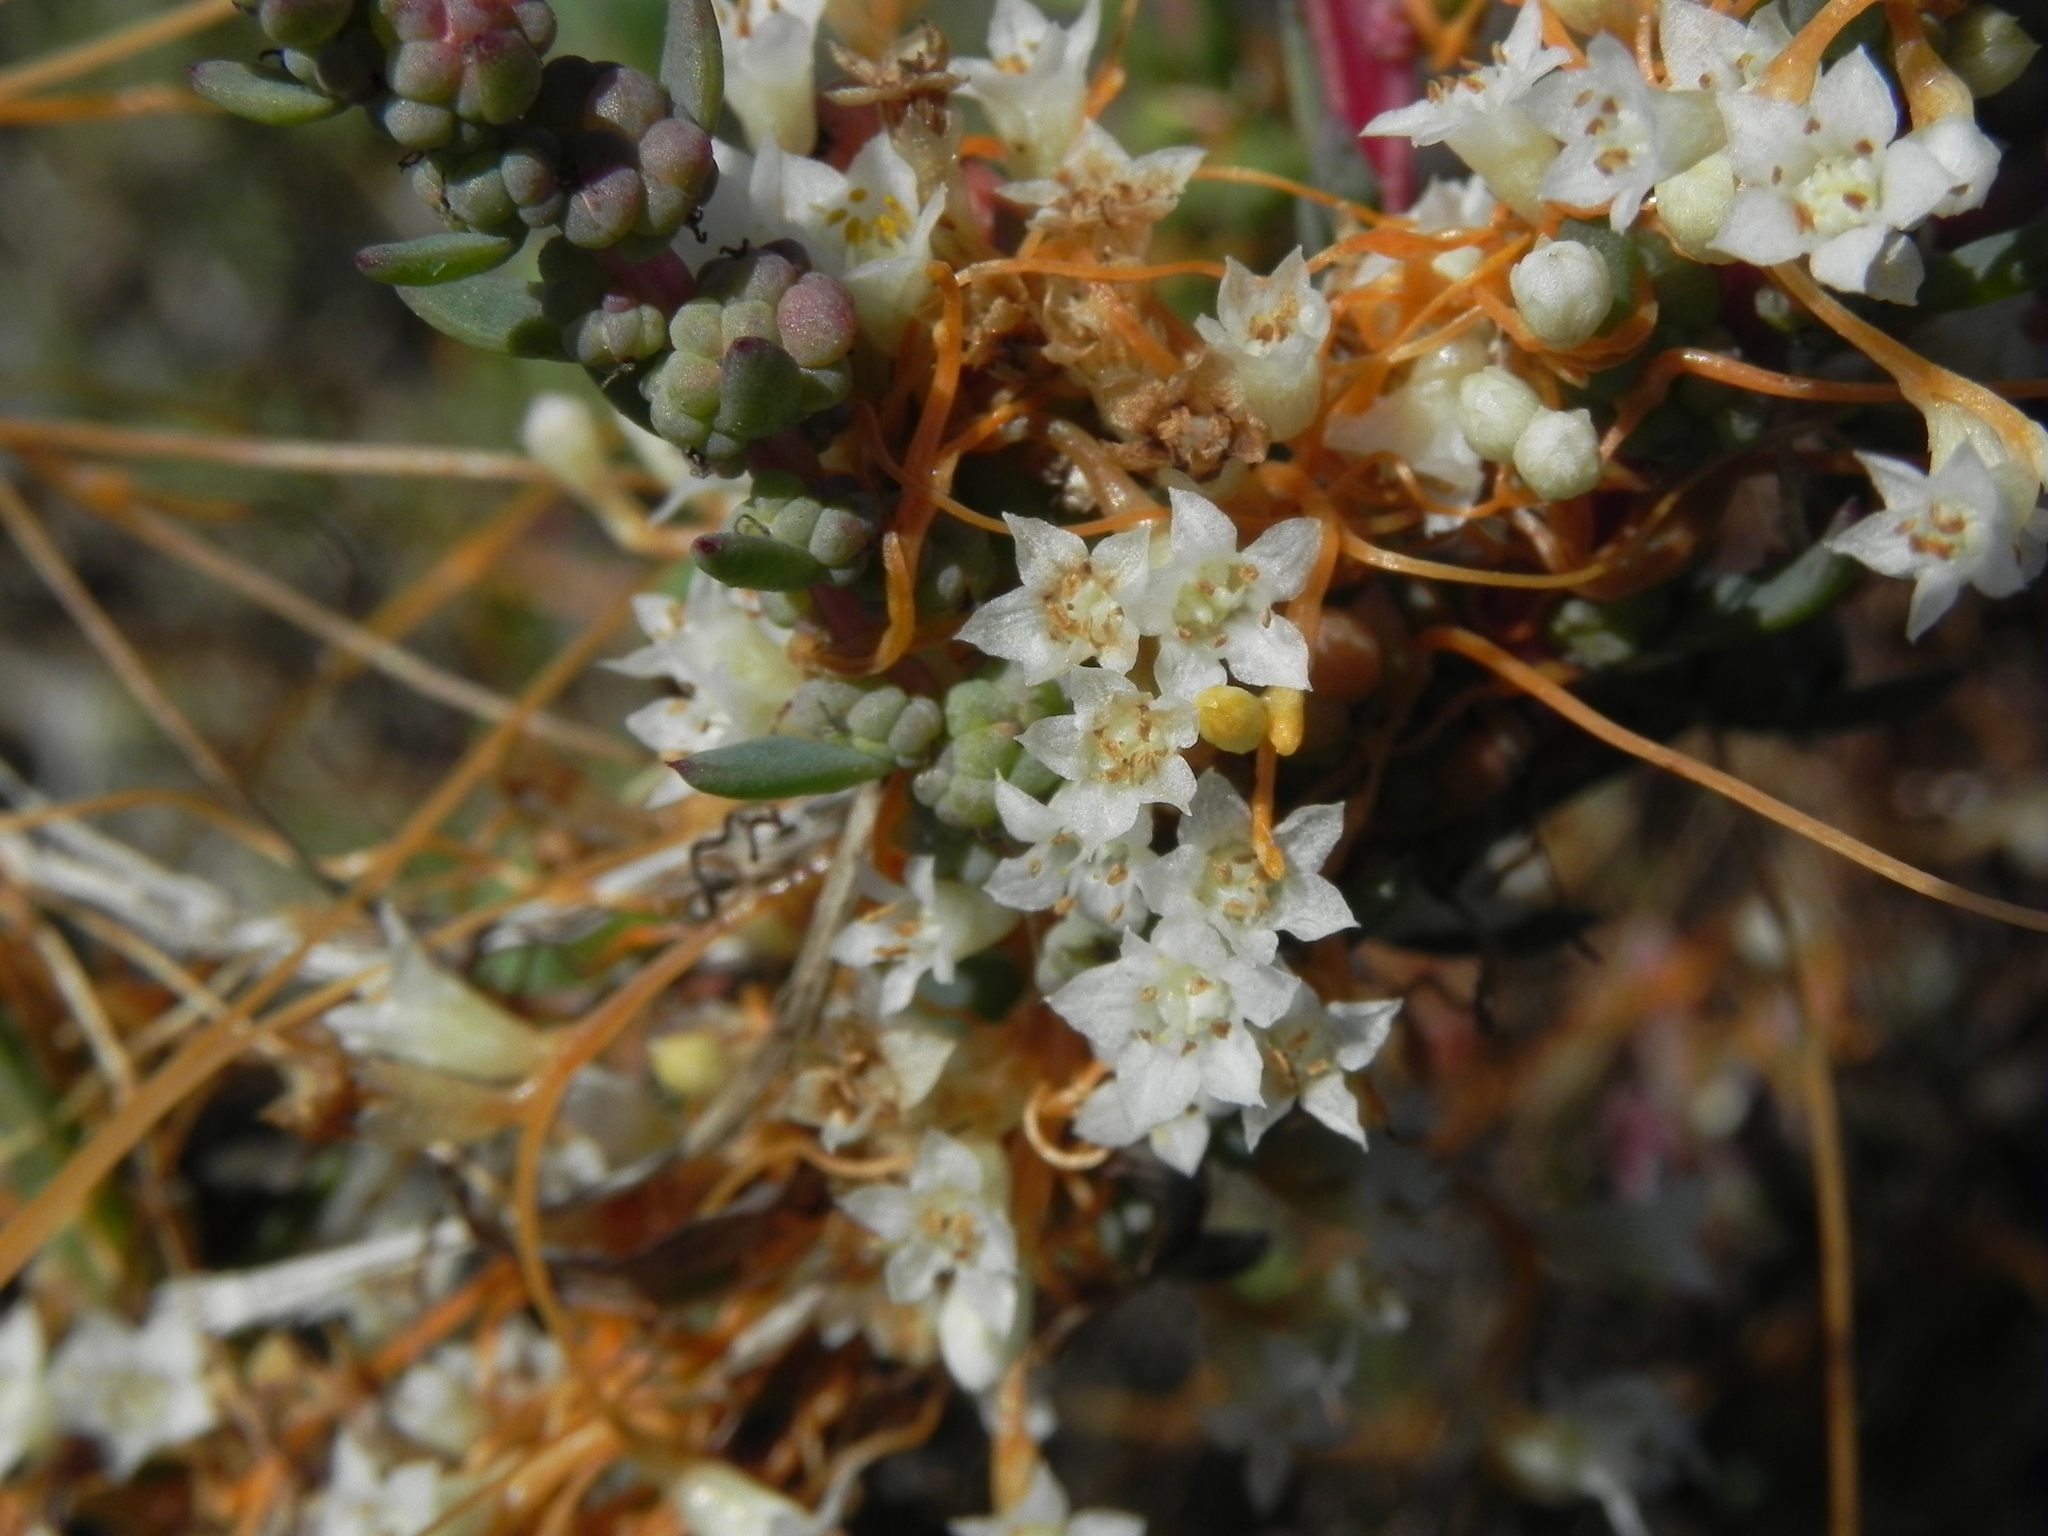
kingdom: Plantae
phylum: Tracheophyta
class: Magnoliopsida
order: Solanales
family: Convolvulaceae
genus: Cuscuta
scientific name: Cuscuta pacifica
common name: Large saltmarsh dodder
